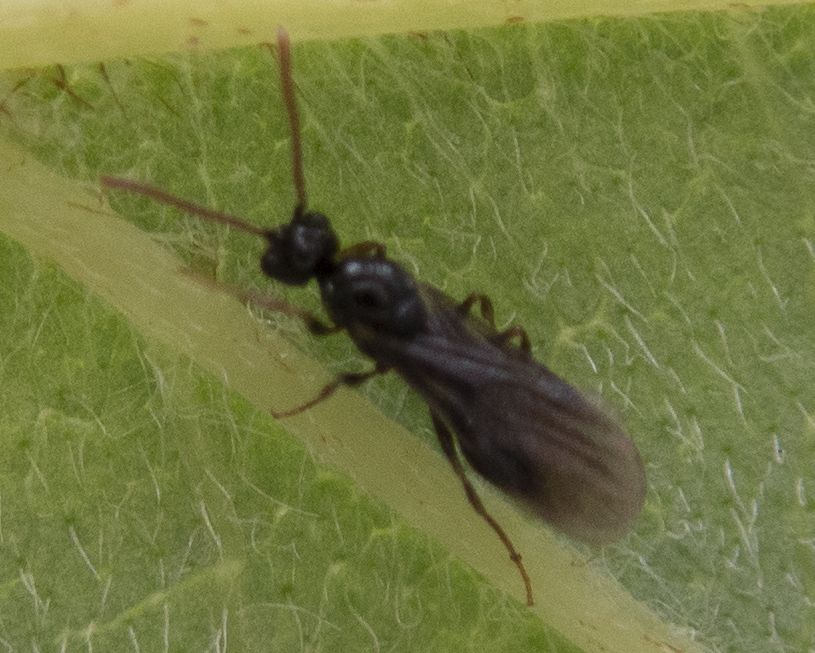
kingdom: Animalia
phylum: Arthropoda
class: Insecta
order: Hymenoptera
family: Formicidae
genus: Myrmecina
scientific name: Myrmecina americana
